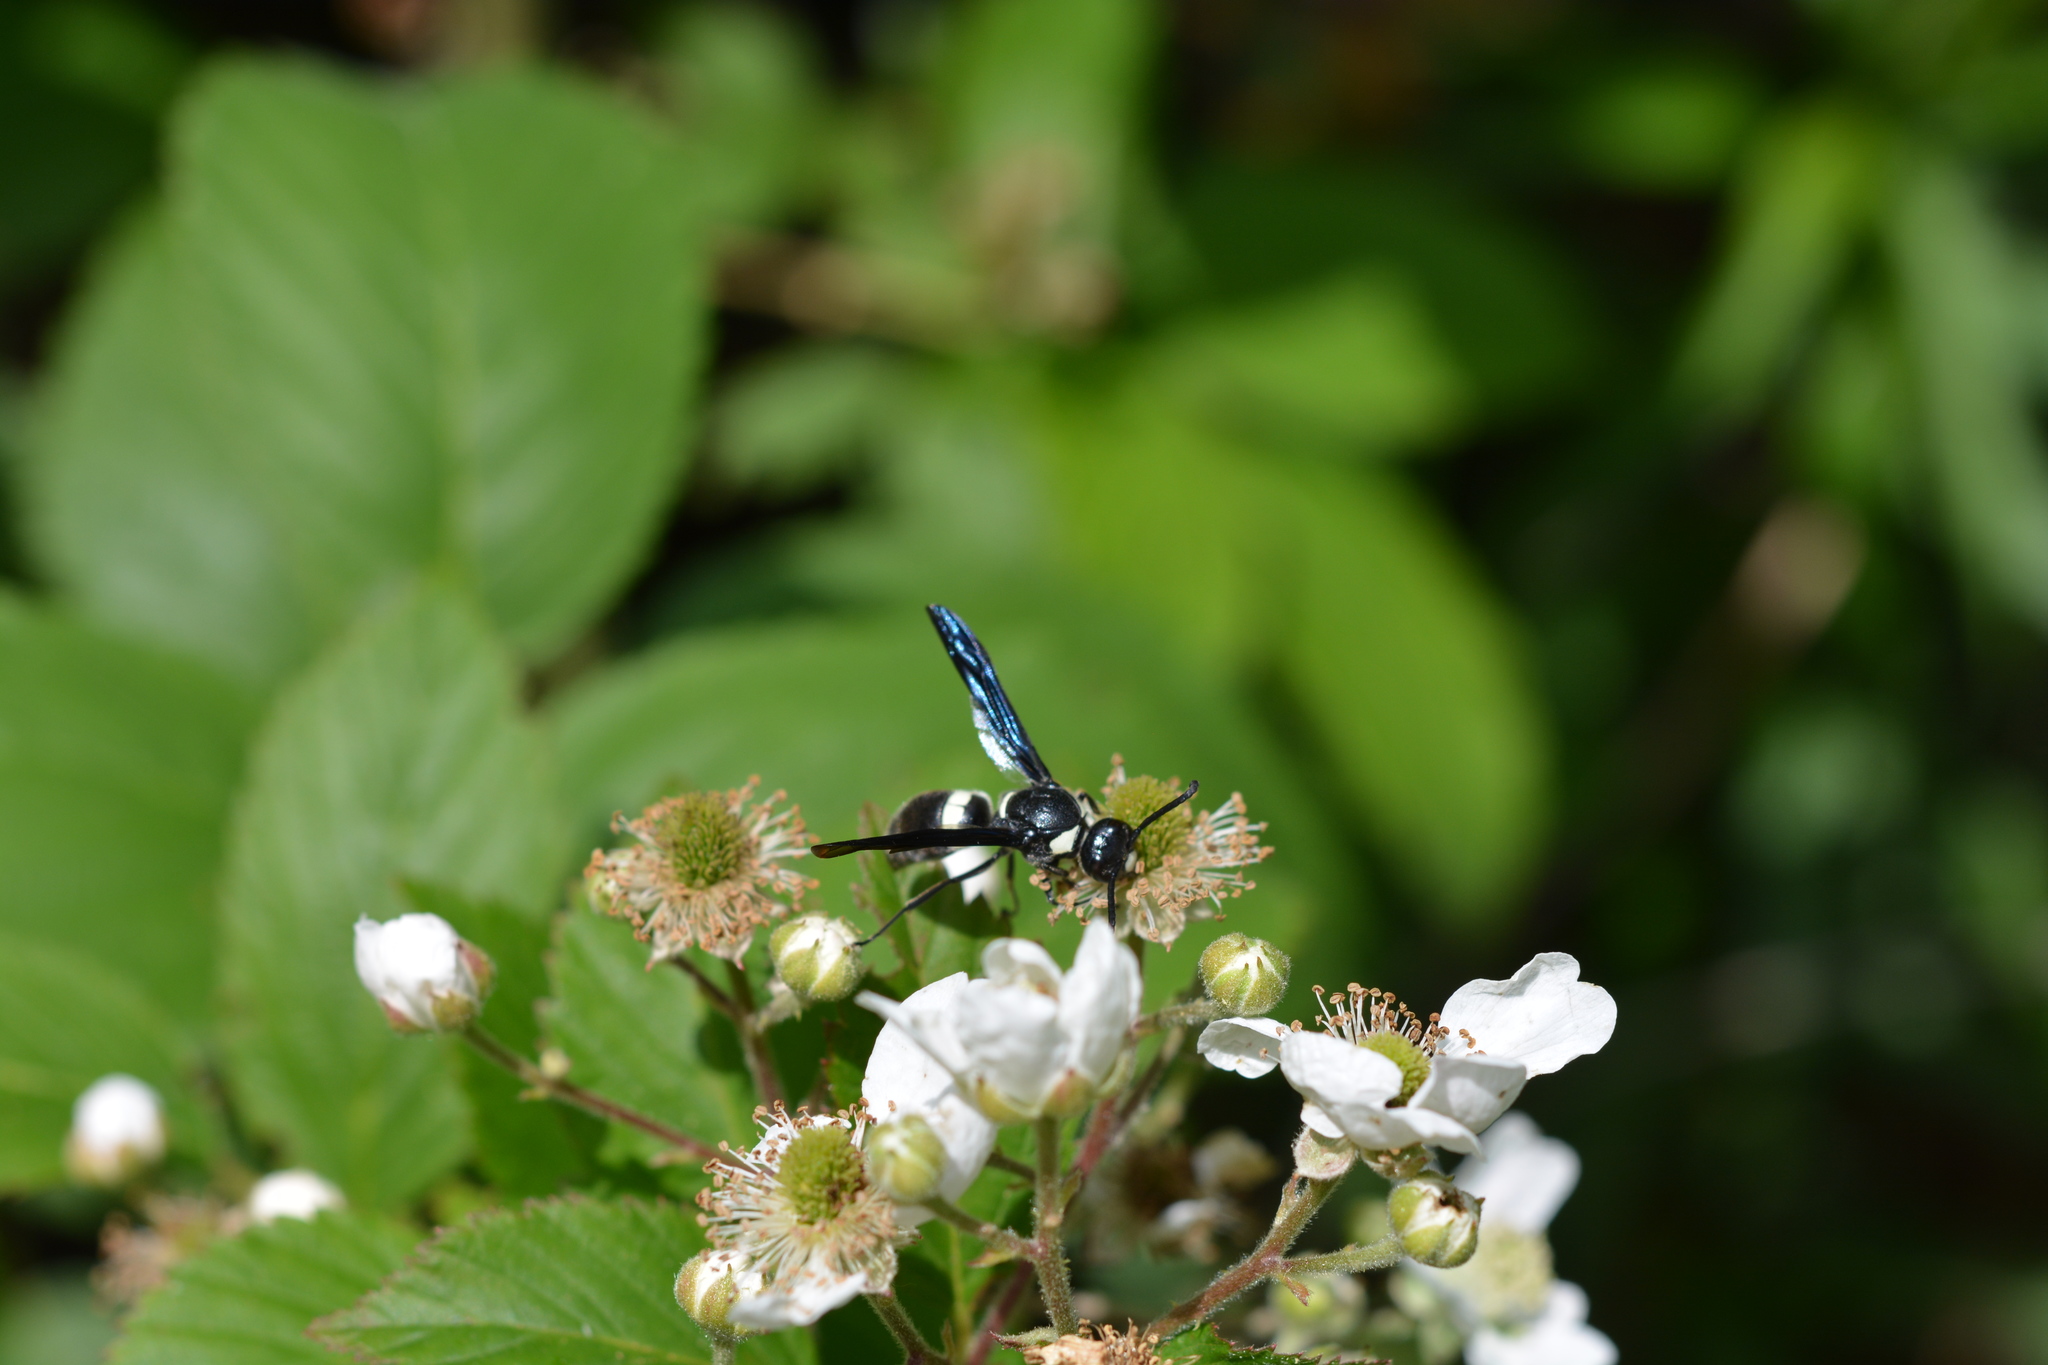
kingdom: Animalia
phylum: Arthropoda
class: Insecta
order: Hymenoptera
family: Eumenidae
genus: Monobia
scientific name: Monobia quadridens
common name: Four-toothed mason wasp
